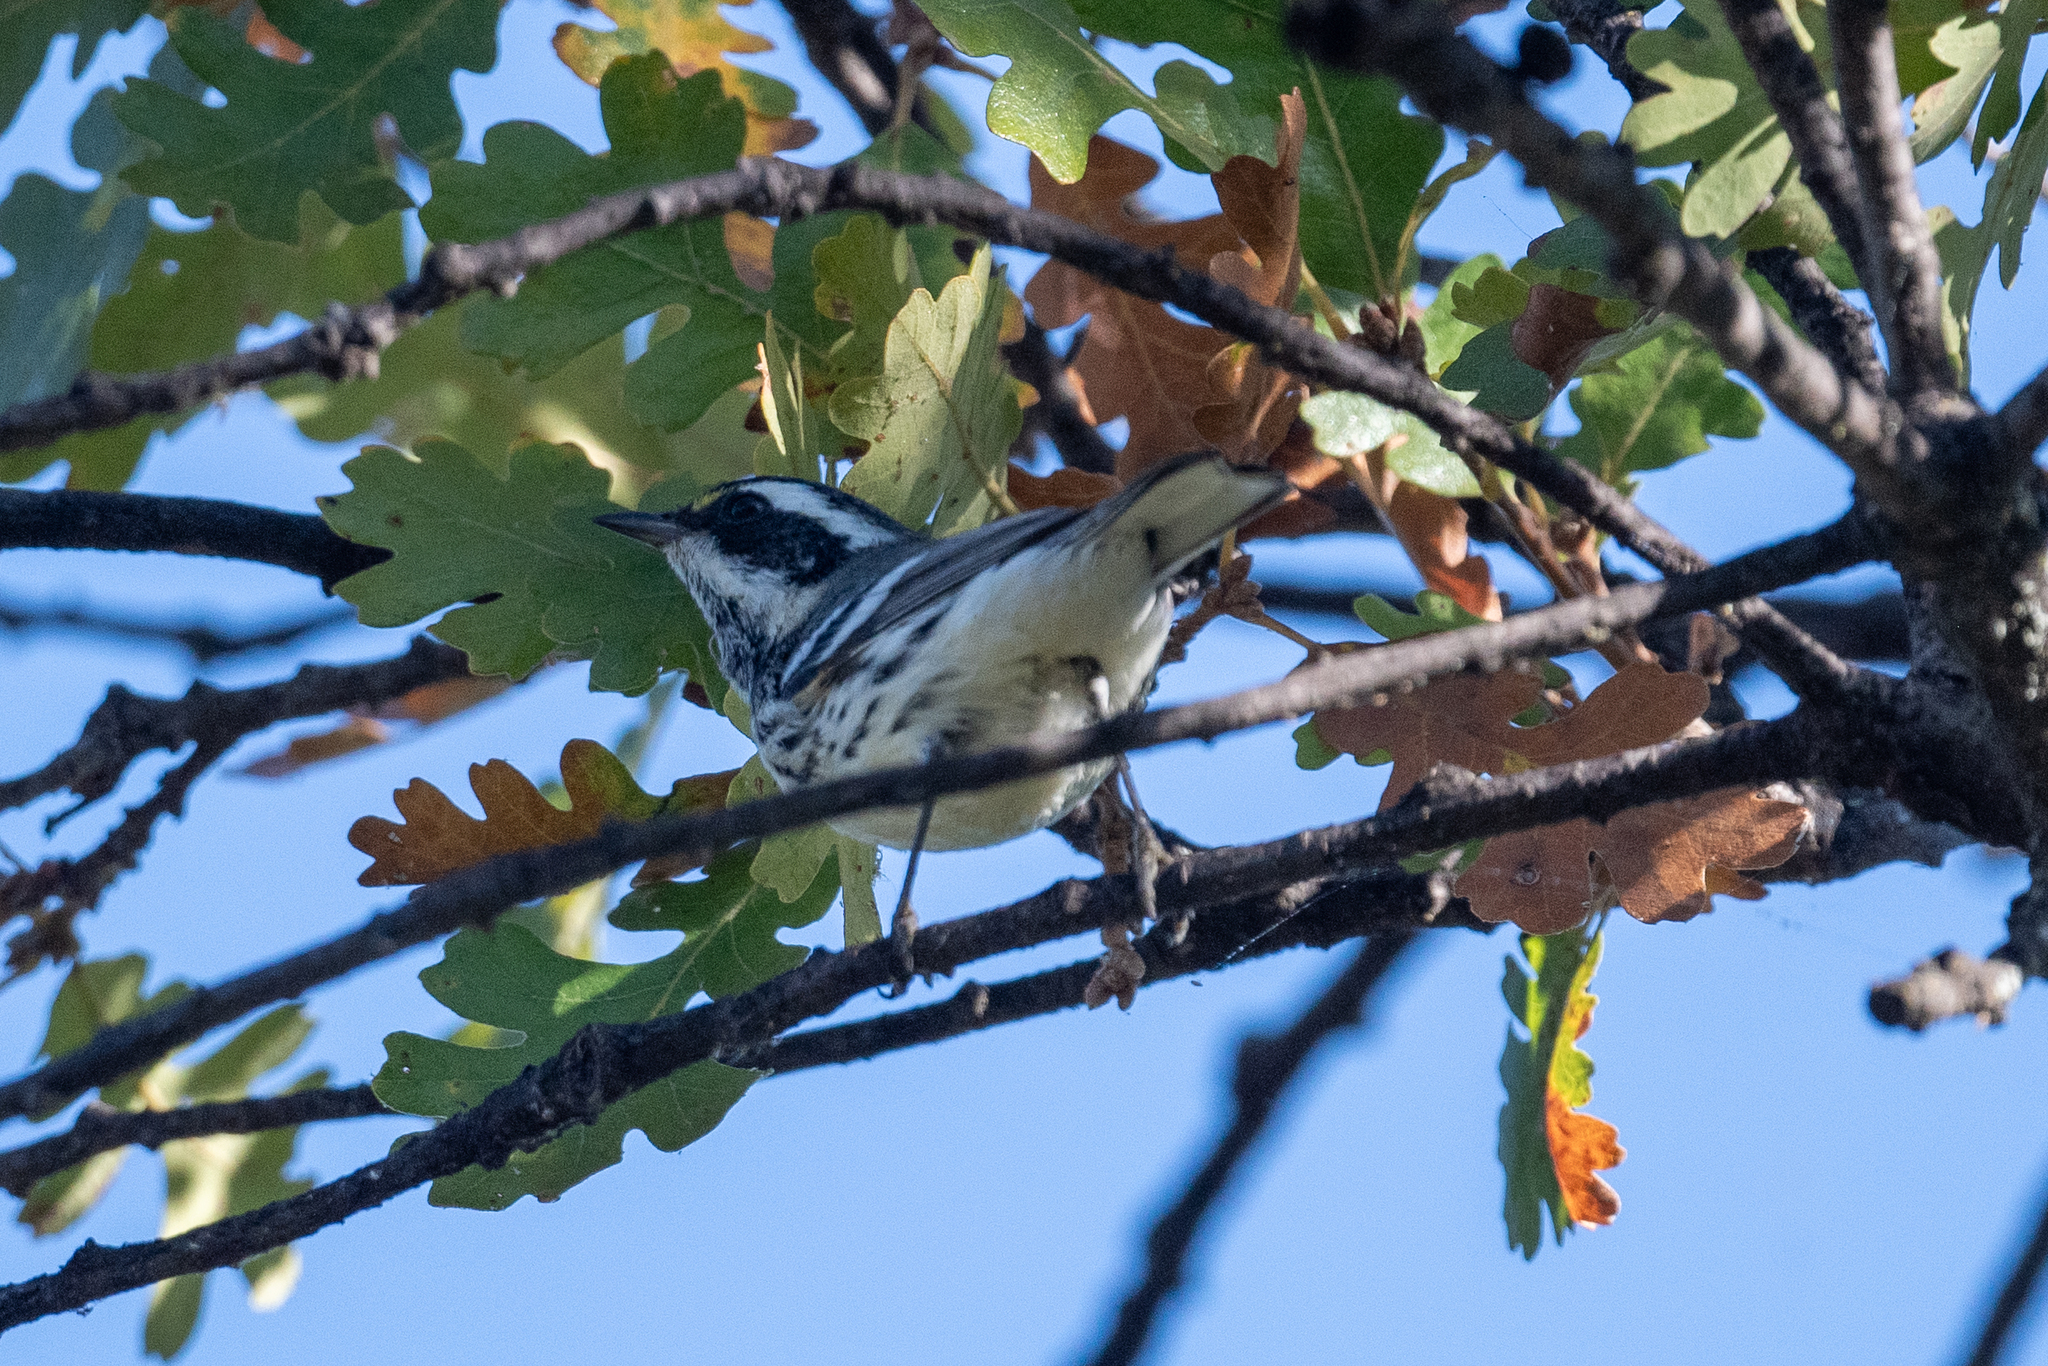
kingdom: Animalia
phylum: Chordata
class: Aves
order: Passeriformes
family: Parulidae
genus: Setophaga
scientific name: Setophaga nigrescens
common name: Black-throated gray warbler
